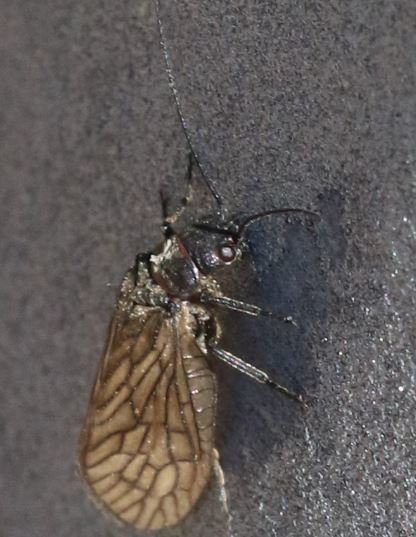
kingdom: Animalia
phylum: Arthropoda
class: Insecta
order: Megaloptera
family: Sialidae
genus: Sialis
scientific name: Sialis
